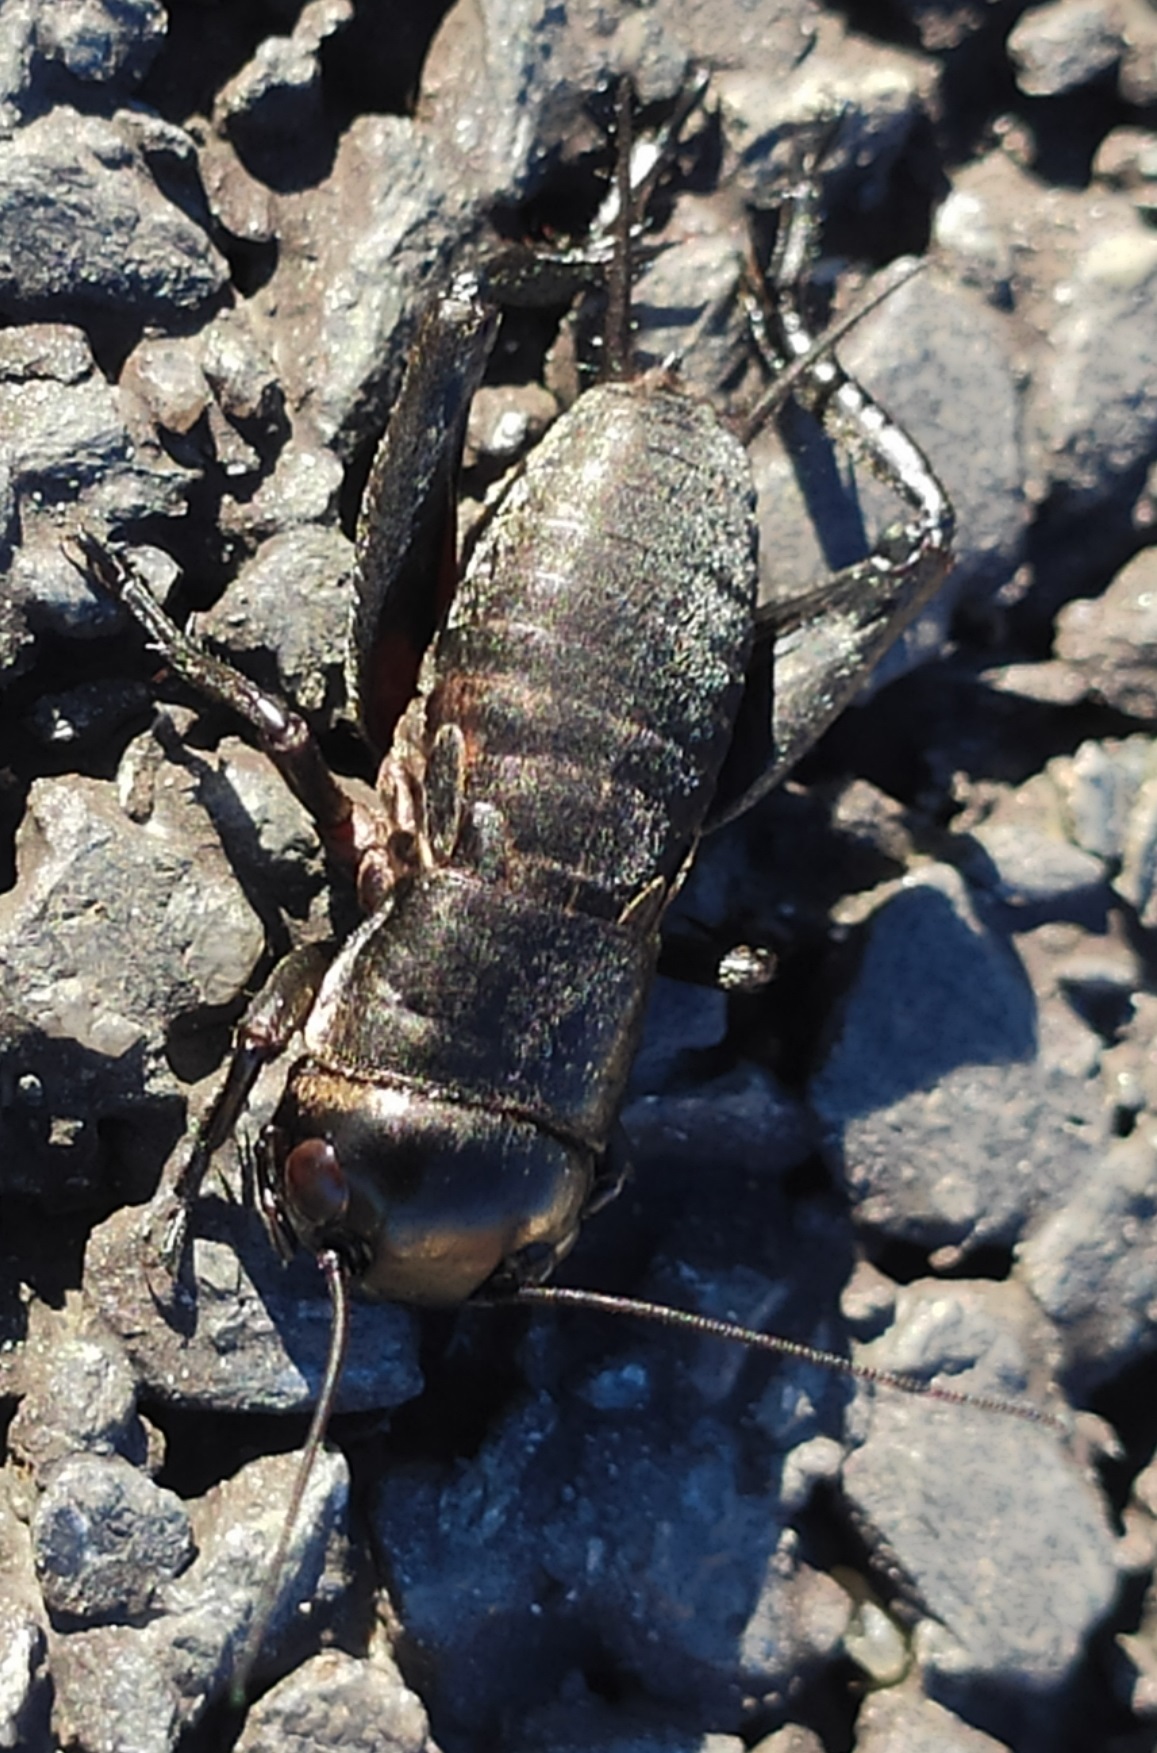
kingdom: Animalia
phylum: Arthropoda
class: Insecta
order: Orthoptera
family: Gryllidae
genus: Gryllus
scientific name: Gryllus campestris
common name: Field cricket
